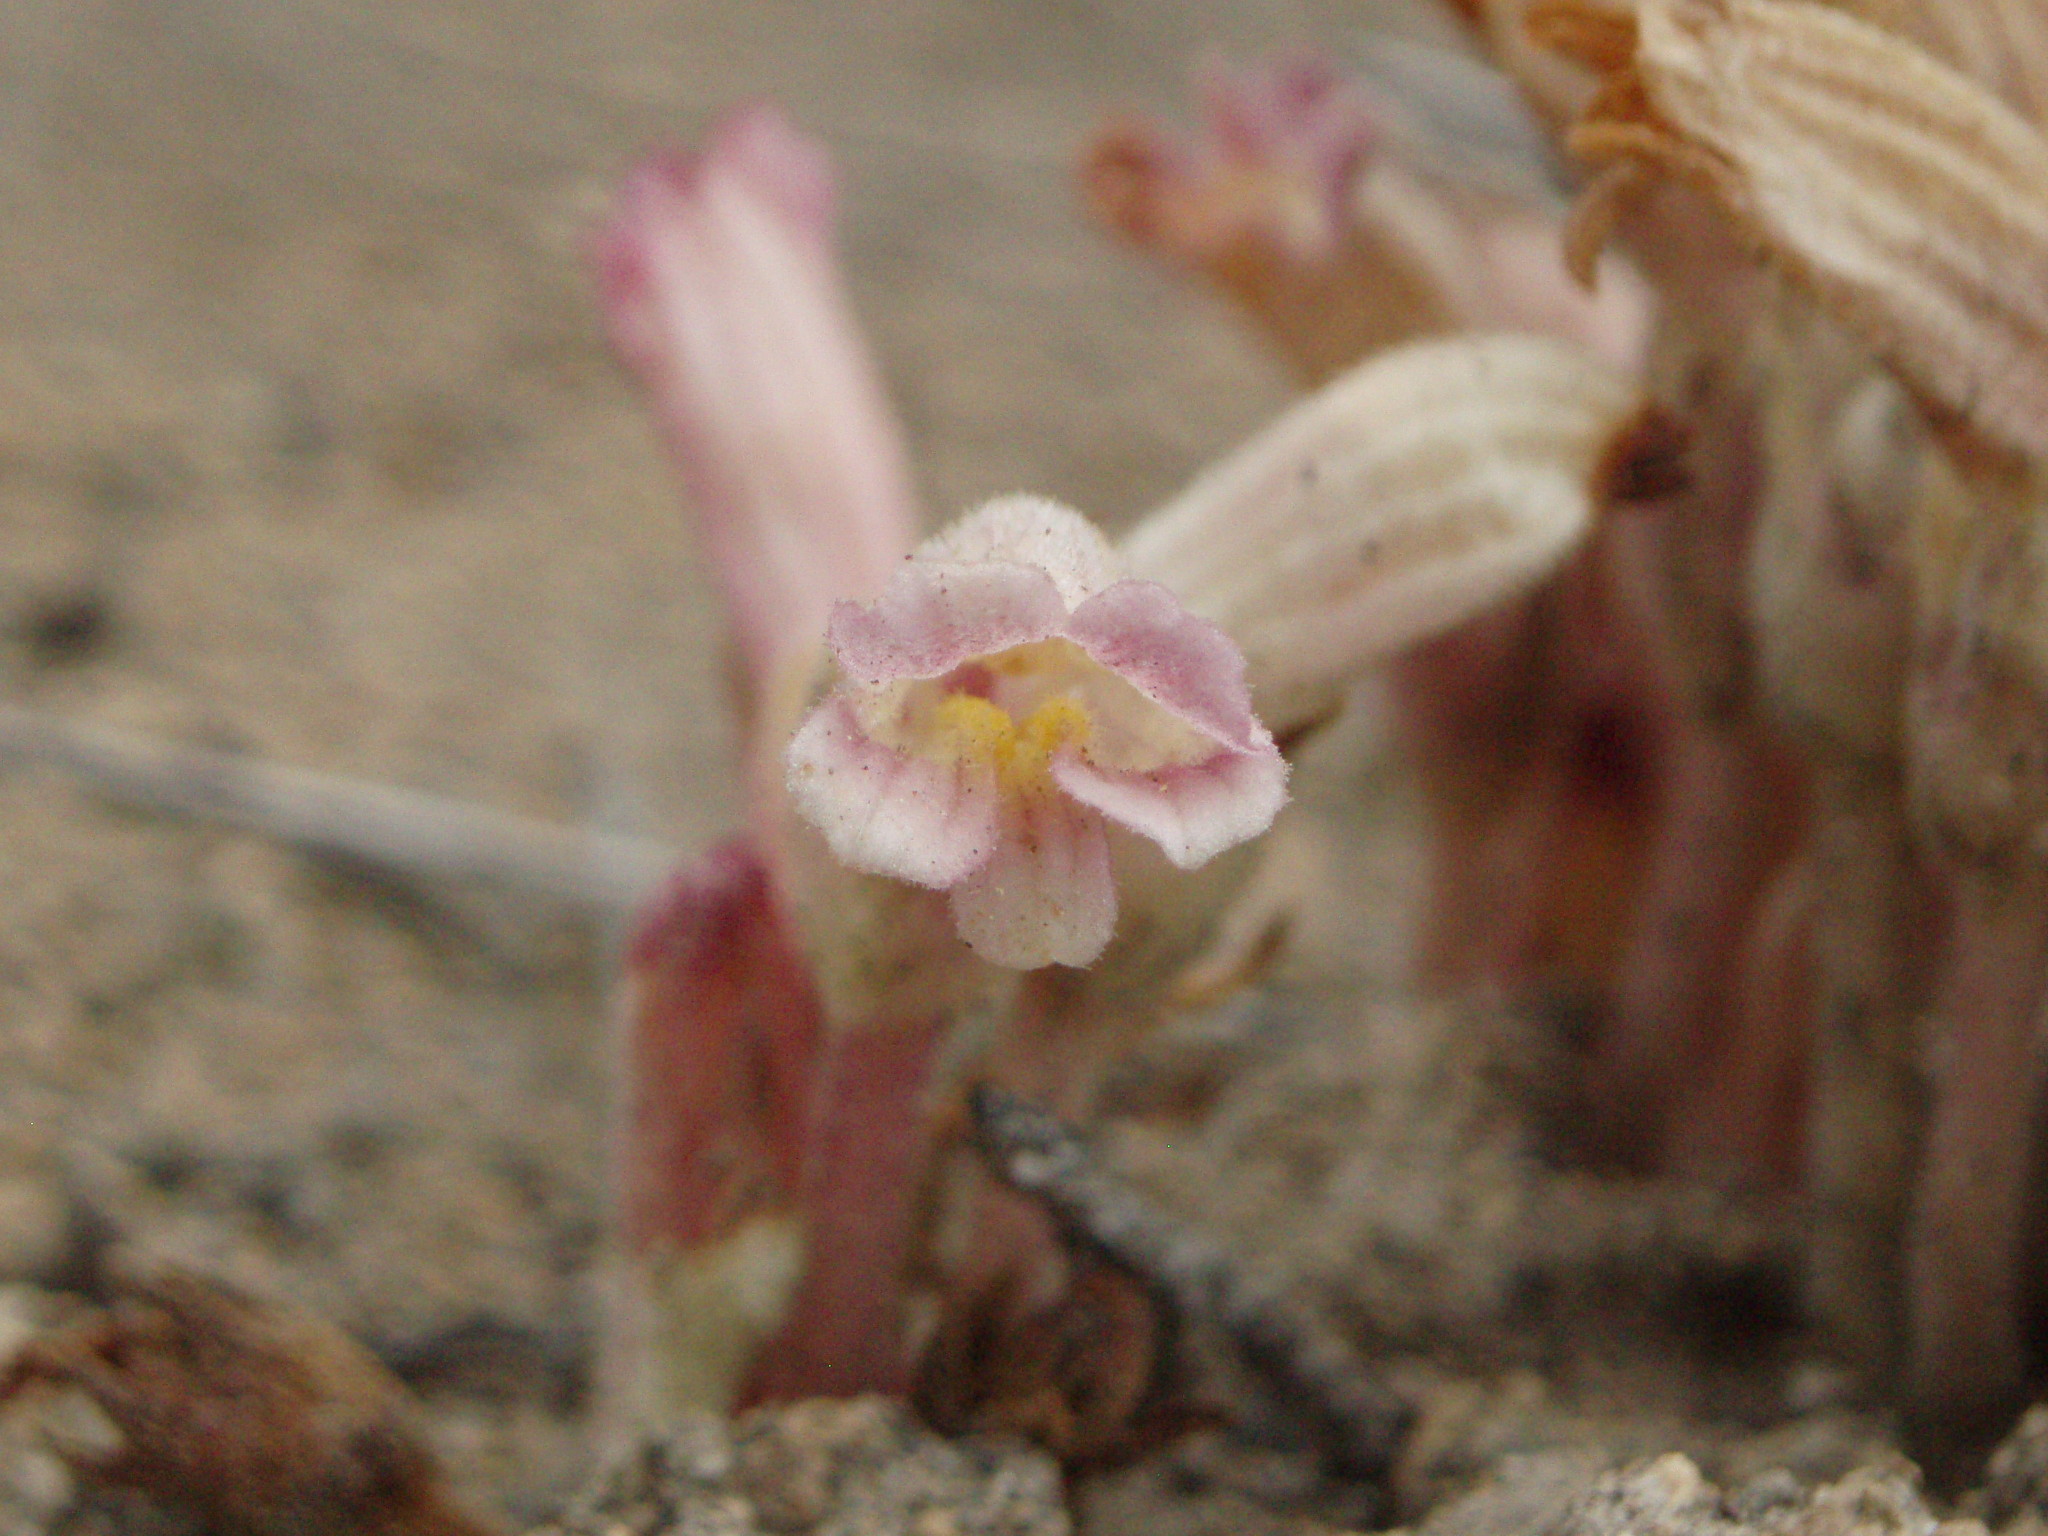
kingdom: Plantae
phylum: Tracheophyta
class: Magnoliopsida
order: Lamiales
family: Orobanchaceae
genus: Aphyllon
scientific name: Aphyllon fasciculatum
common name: Clustered broomrape
